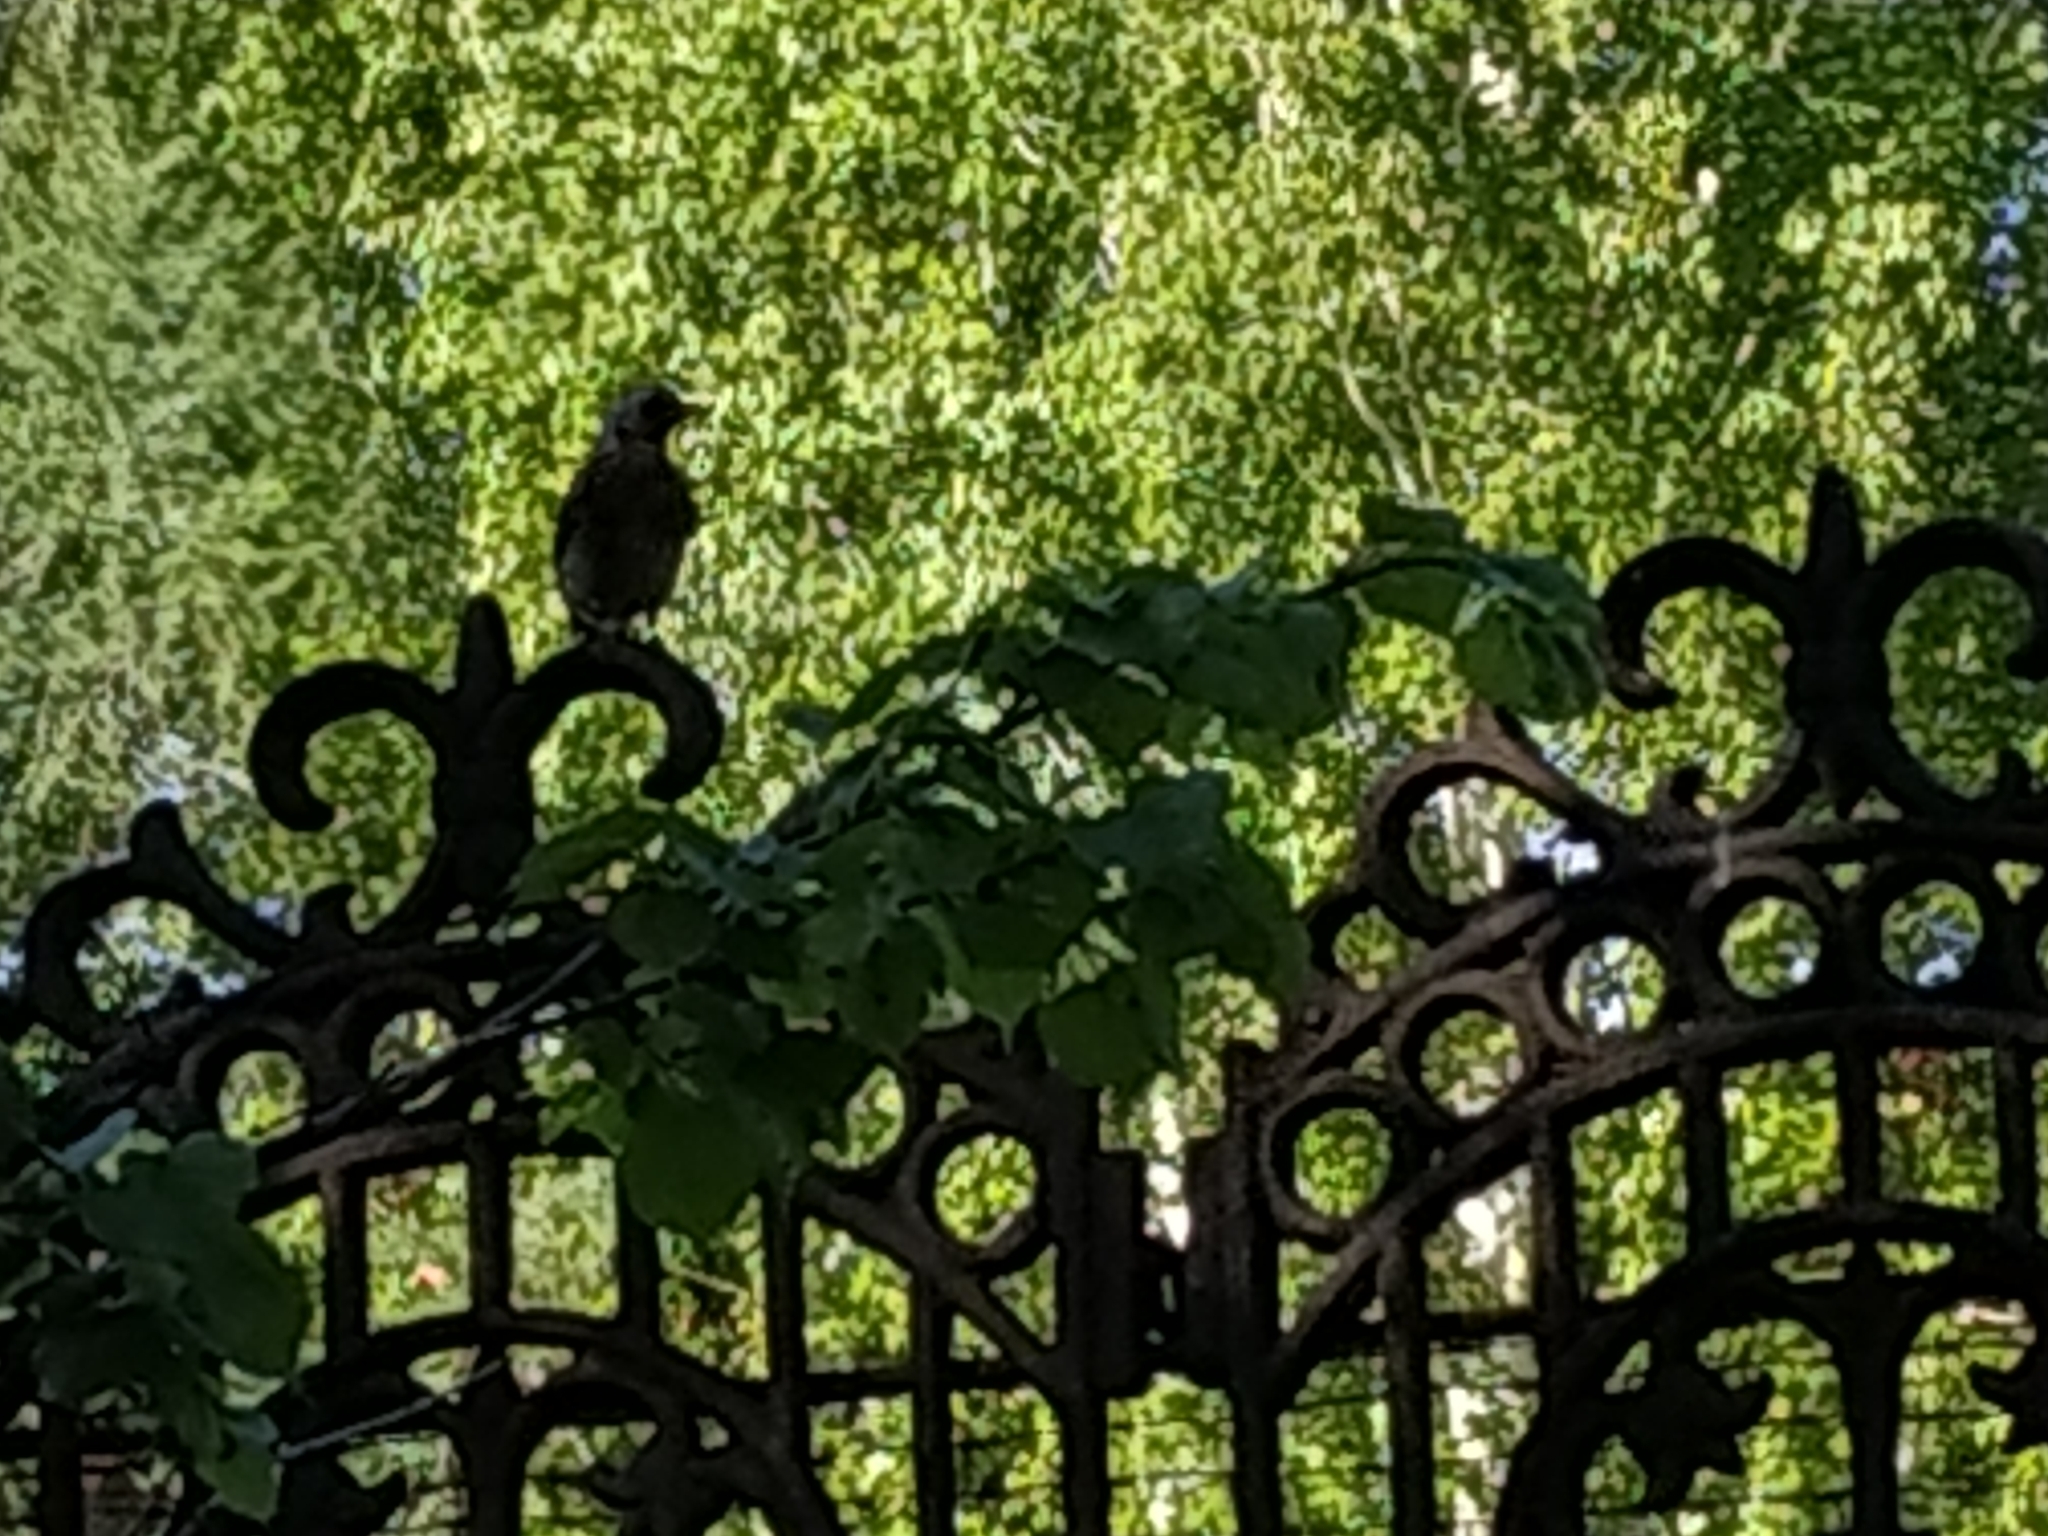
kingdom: Animalia
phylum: Chordata
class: Aves
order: Passeriformes
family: Turdidae
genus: Turdus
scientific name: Turdus pilaris
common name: Fieldfare
